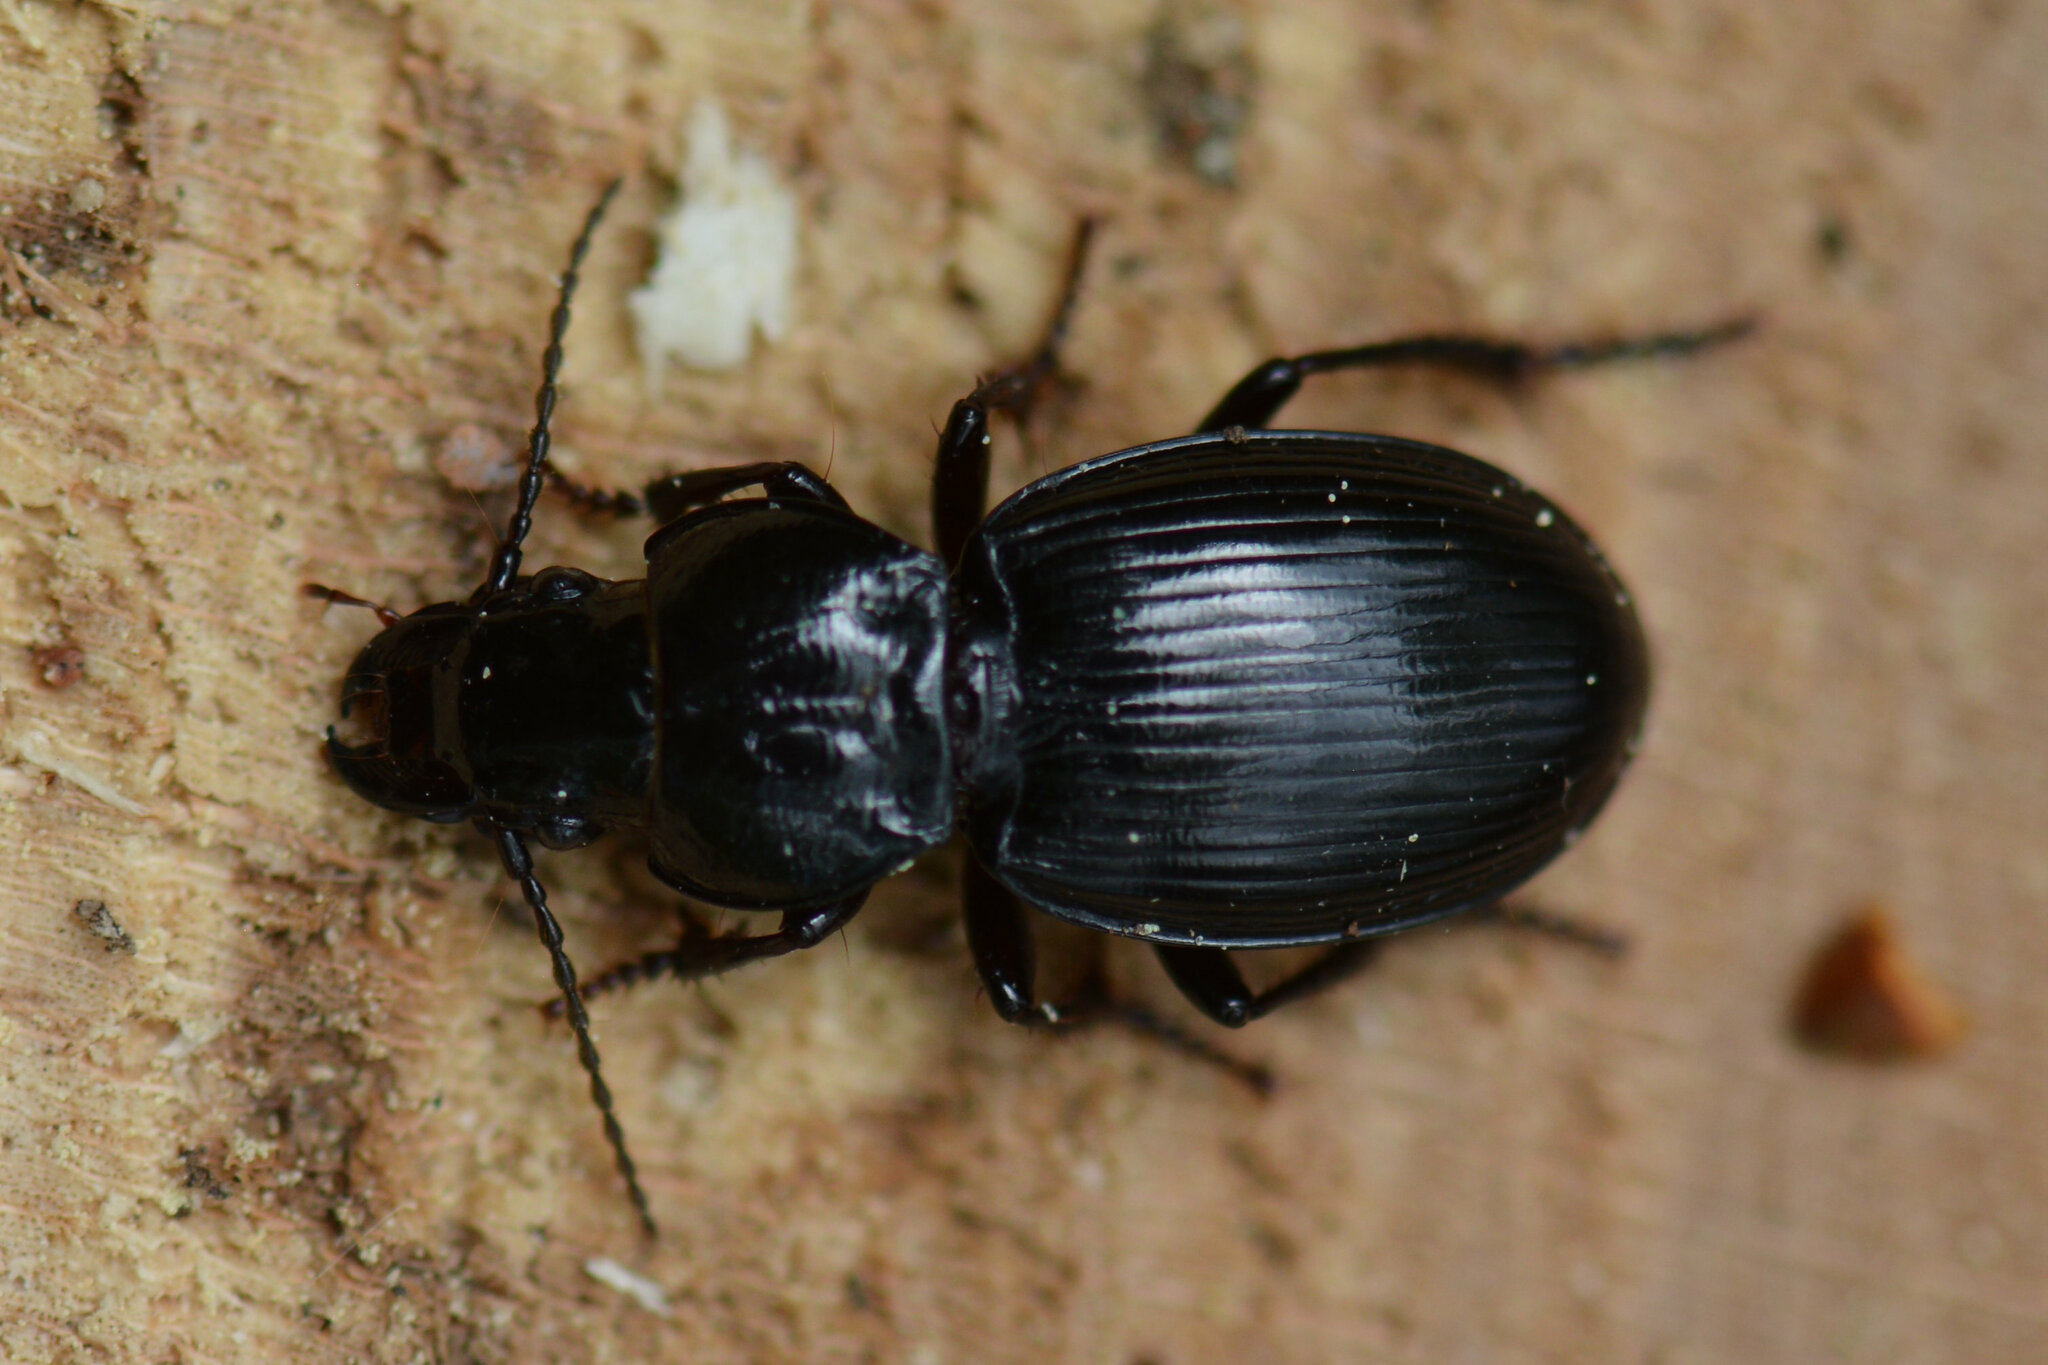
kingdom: Animalia
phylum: Arthropoda
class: Insecta
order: Coleoptera
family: Carabidae
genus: Molops
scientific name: Molops elatus
